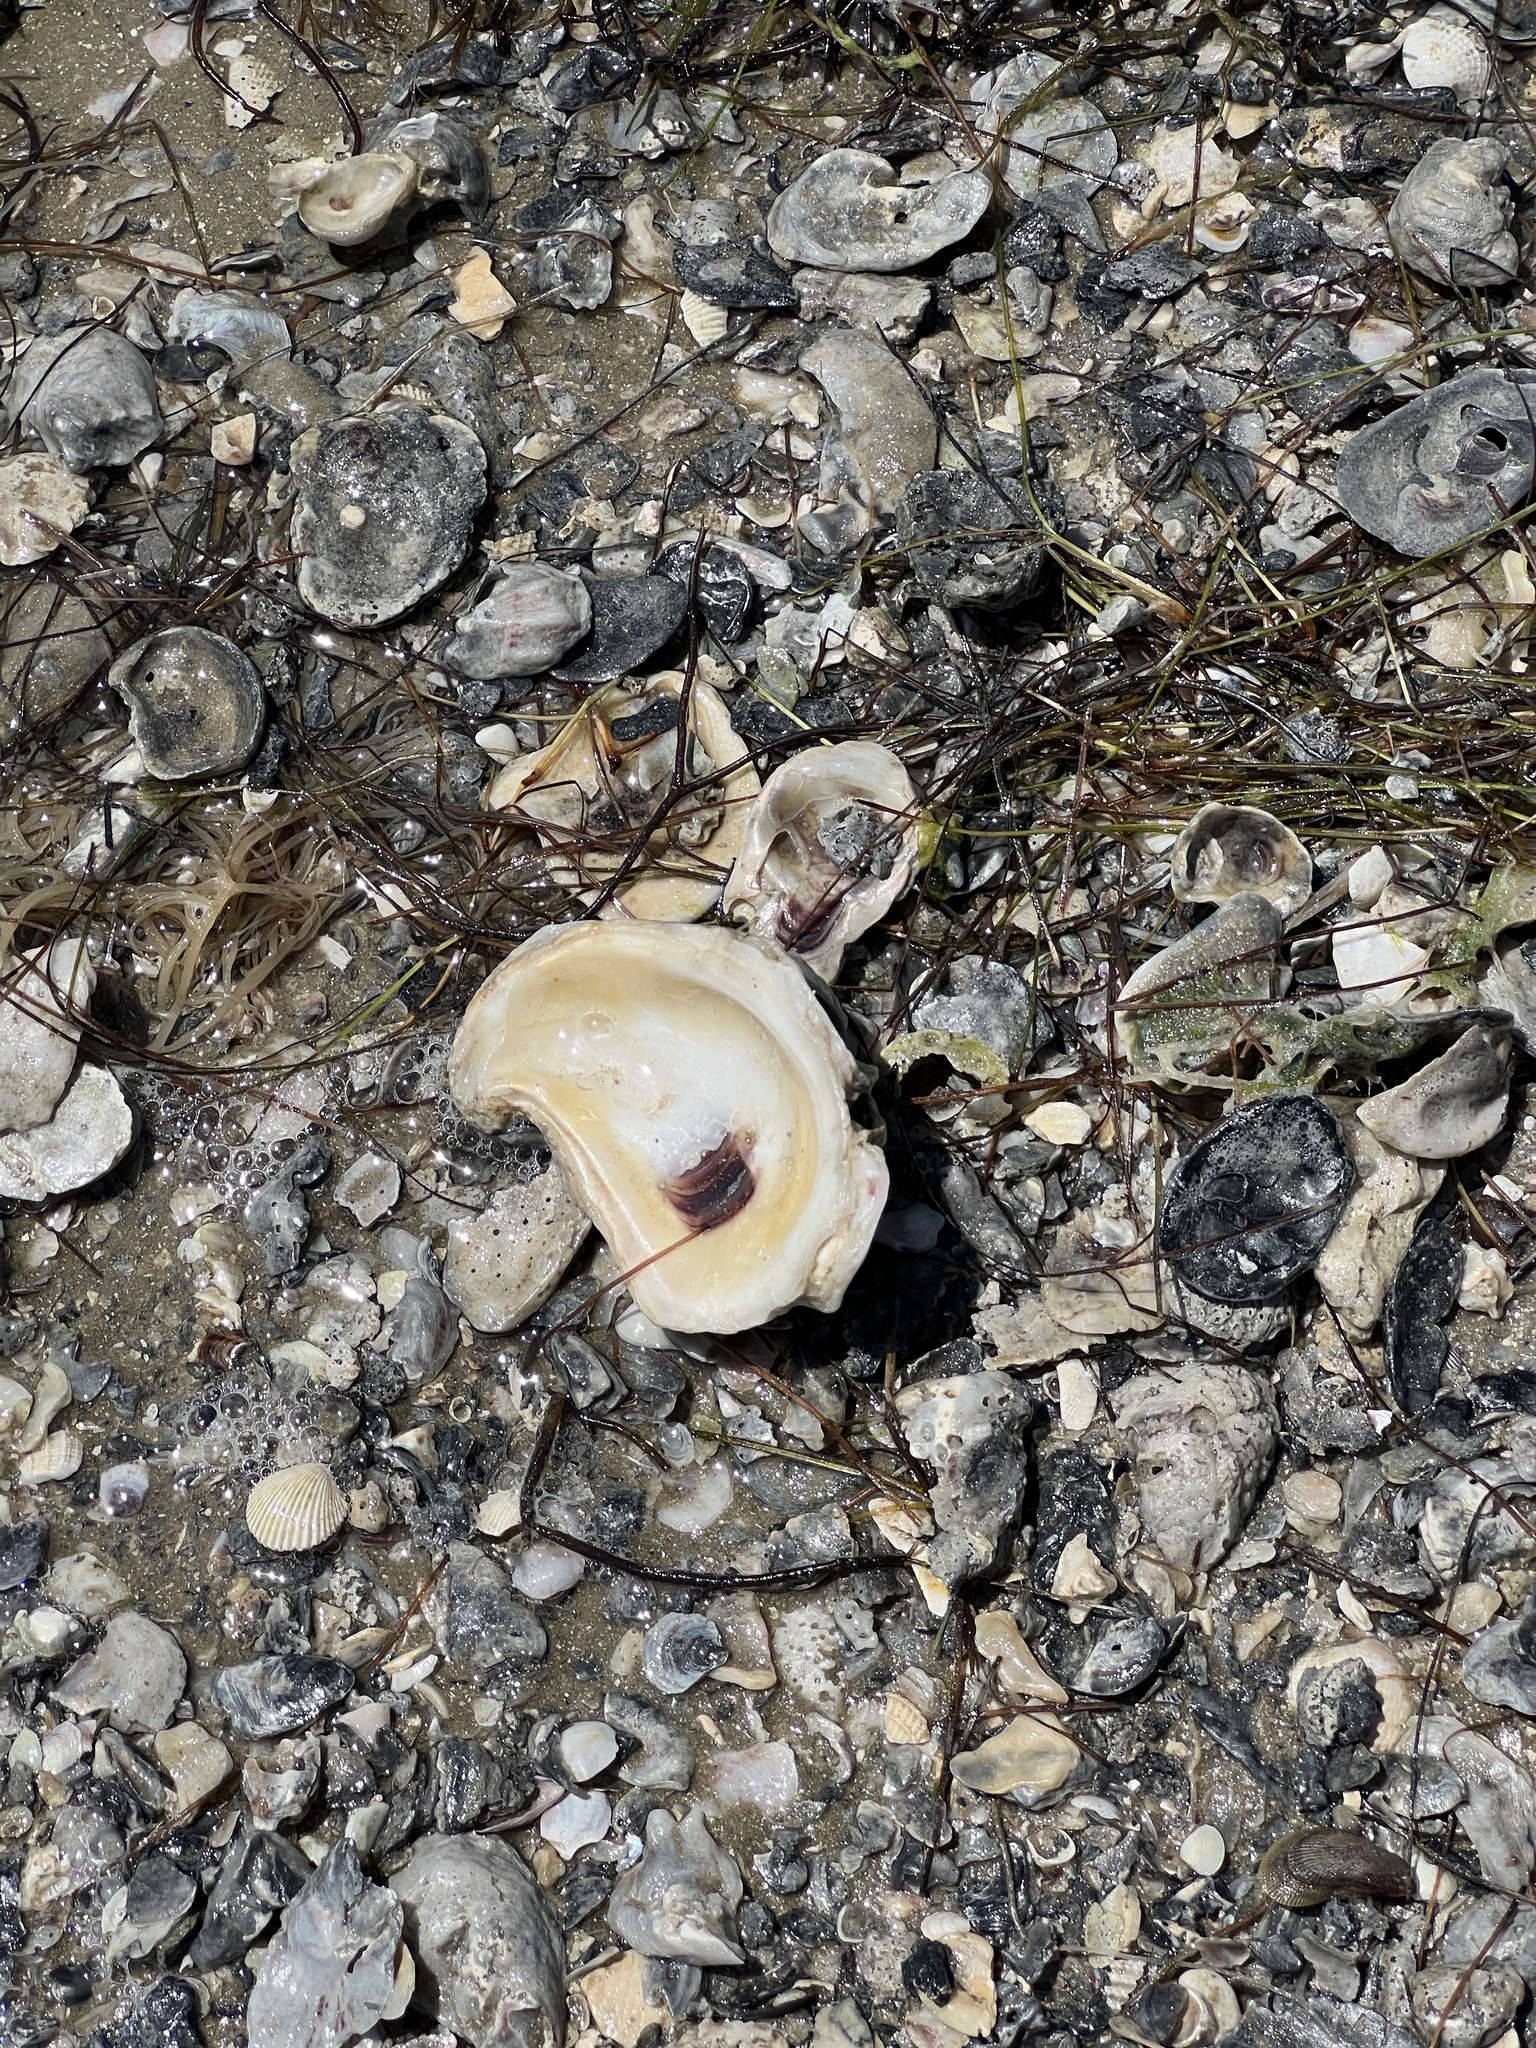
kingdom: Animalia
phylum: Mollusca
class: Bivalvia
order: Ostreida
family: Ostreidae
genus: Crassostrea
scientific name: Crassostrea virginica
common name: American oyster
